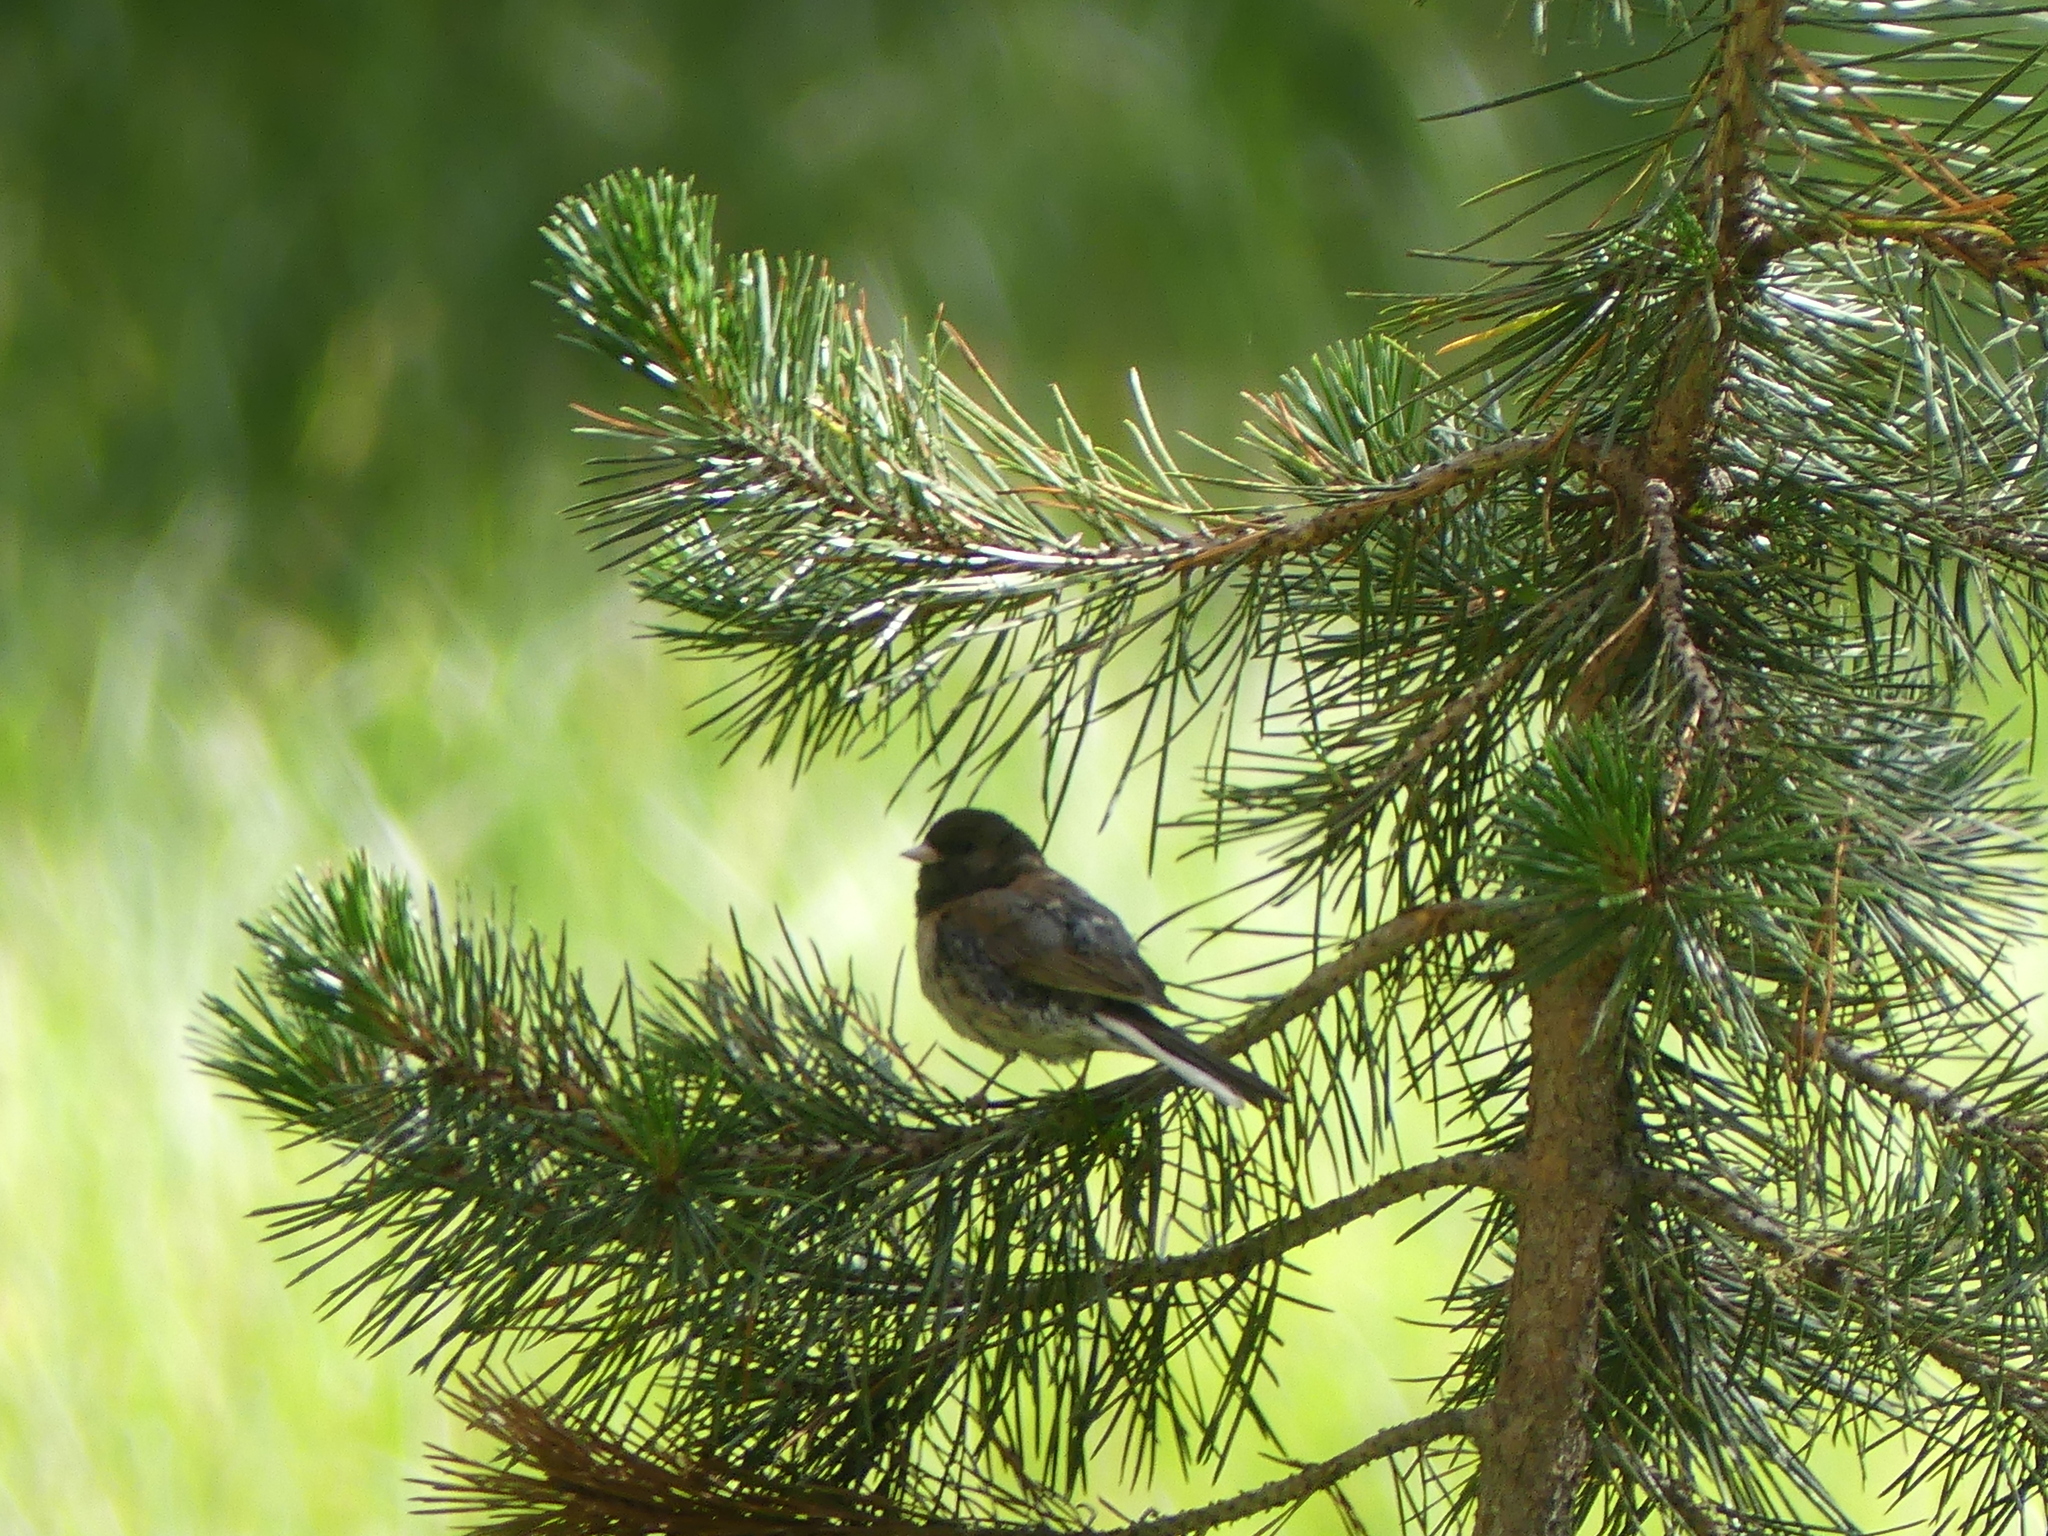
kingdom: Animalia
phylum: Chordata
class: Aves
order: Passeriformes
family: Passerellidae
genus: Junco
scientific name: Junco hyemalis
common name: Dark-eyed junco
